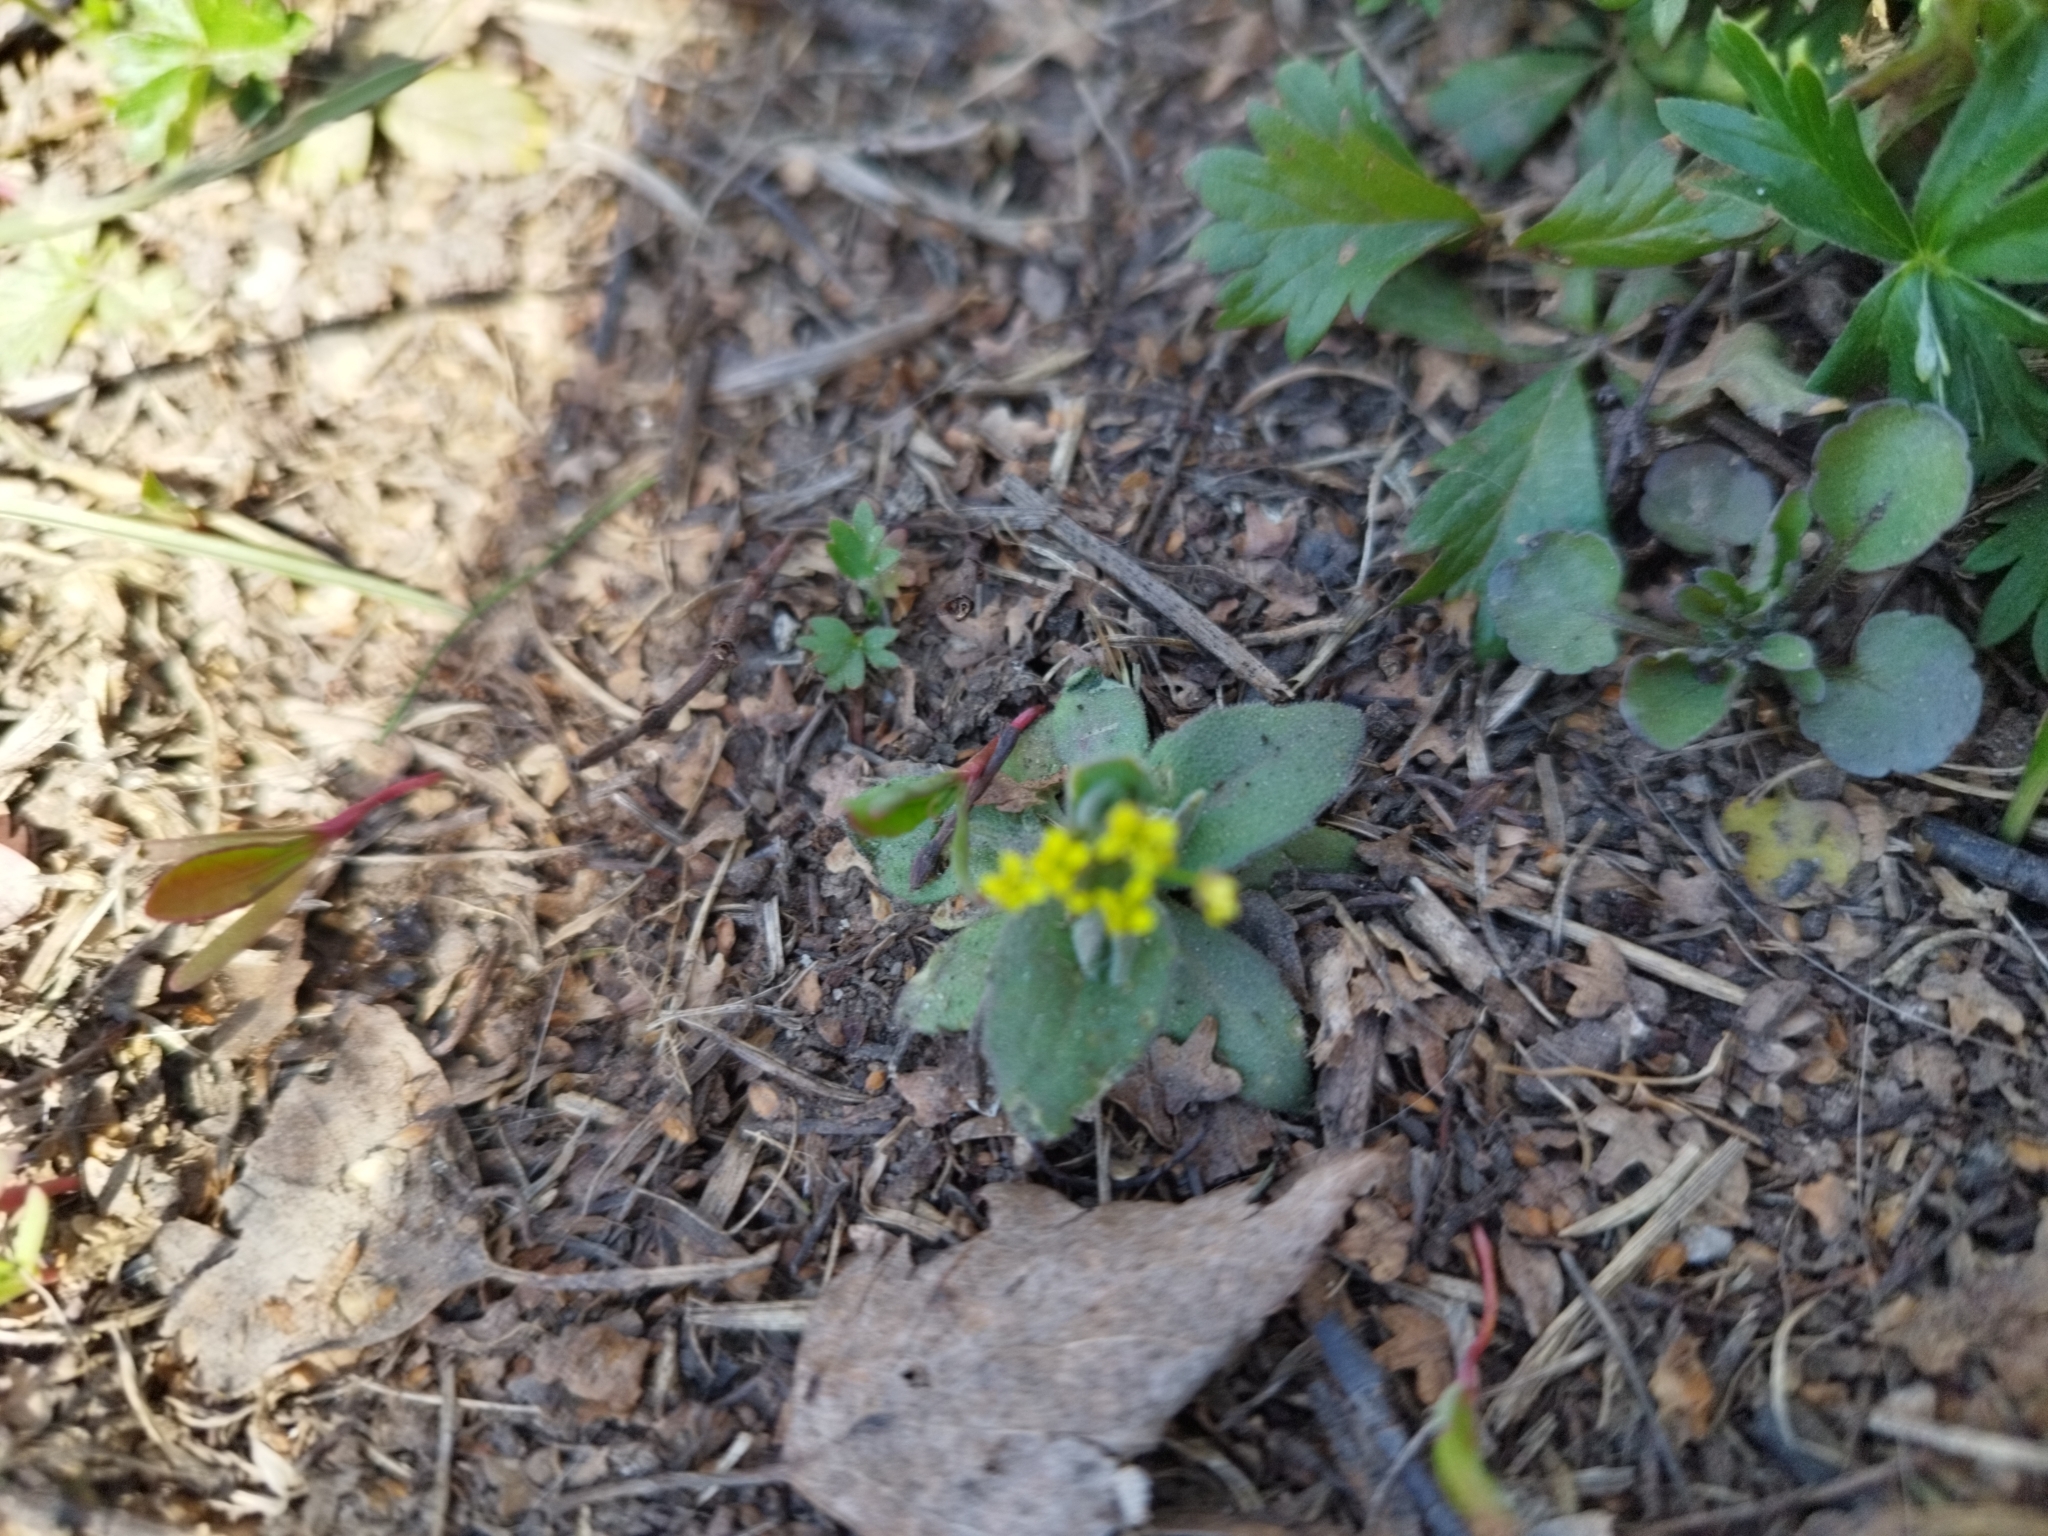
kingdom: Plantae
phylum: Tracheophyta
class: Magnoliopsida
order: Brassicales
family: Brassicaceae
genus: Draba
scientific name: Draba nemorosa
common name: Wood whitlow-grass
